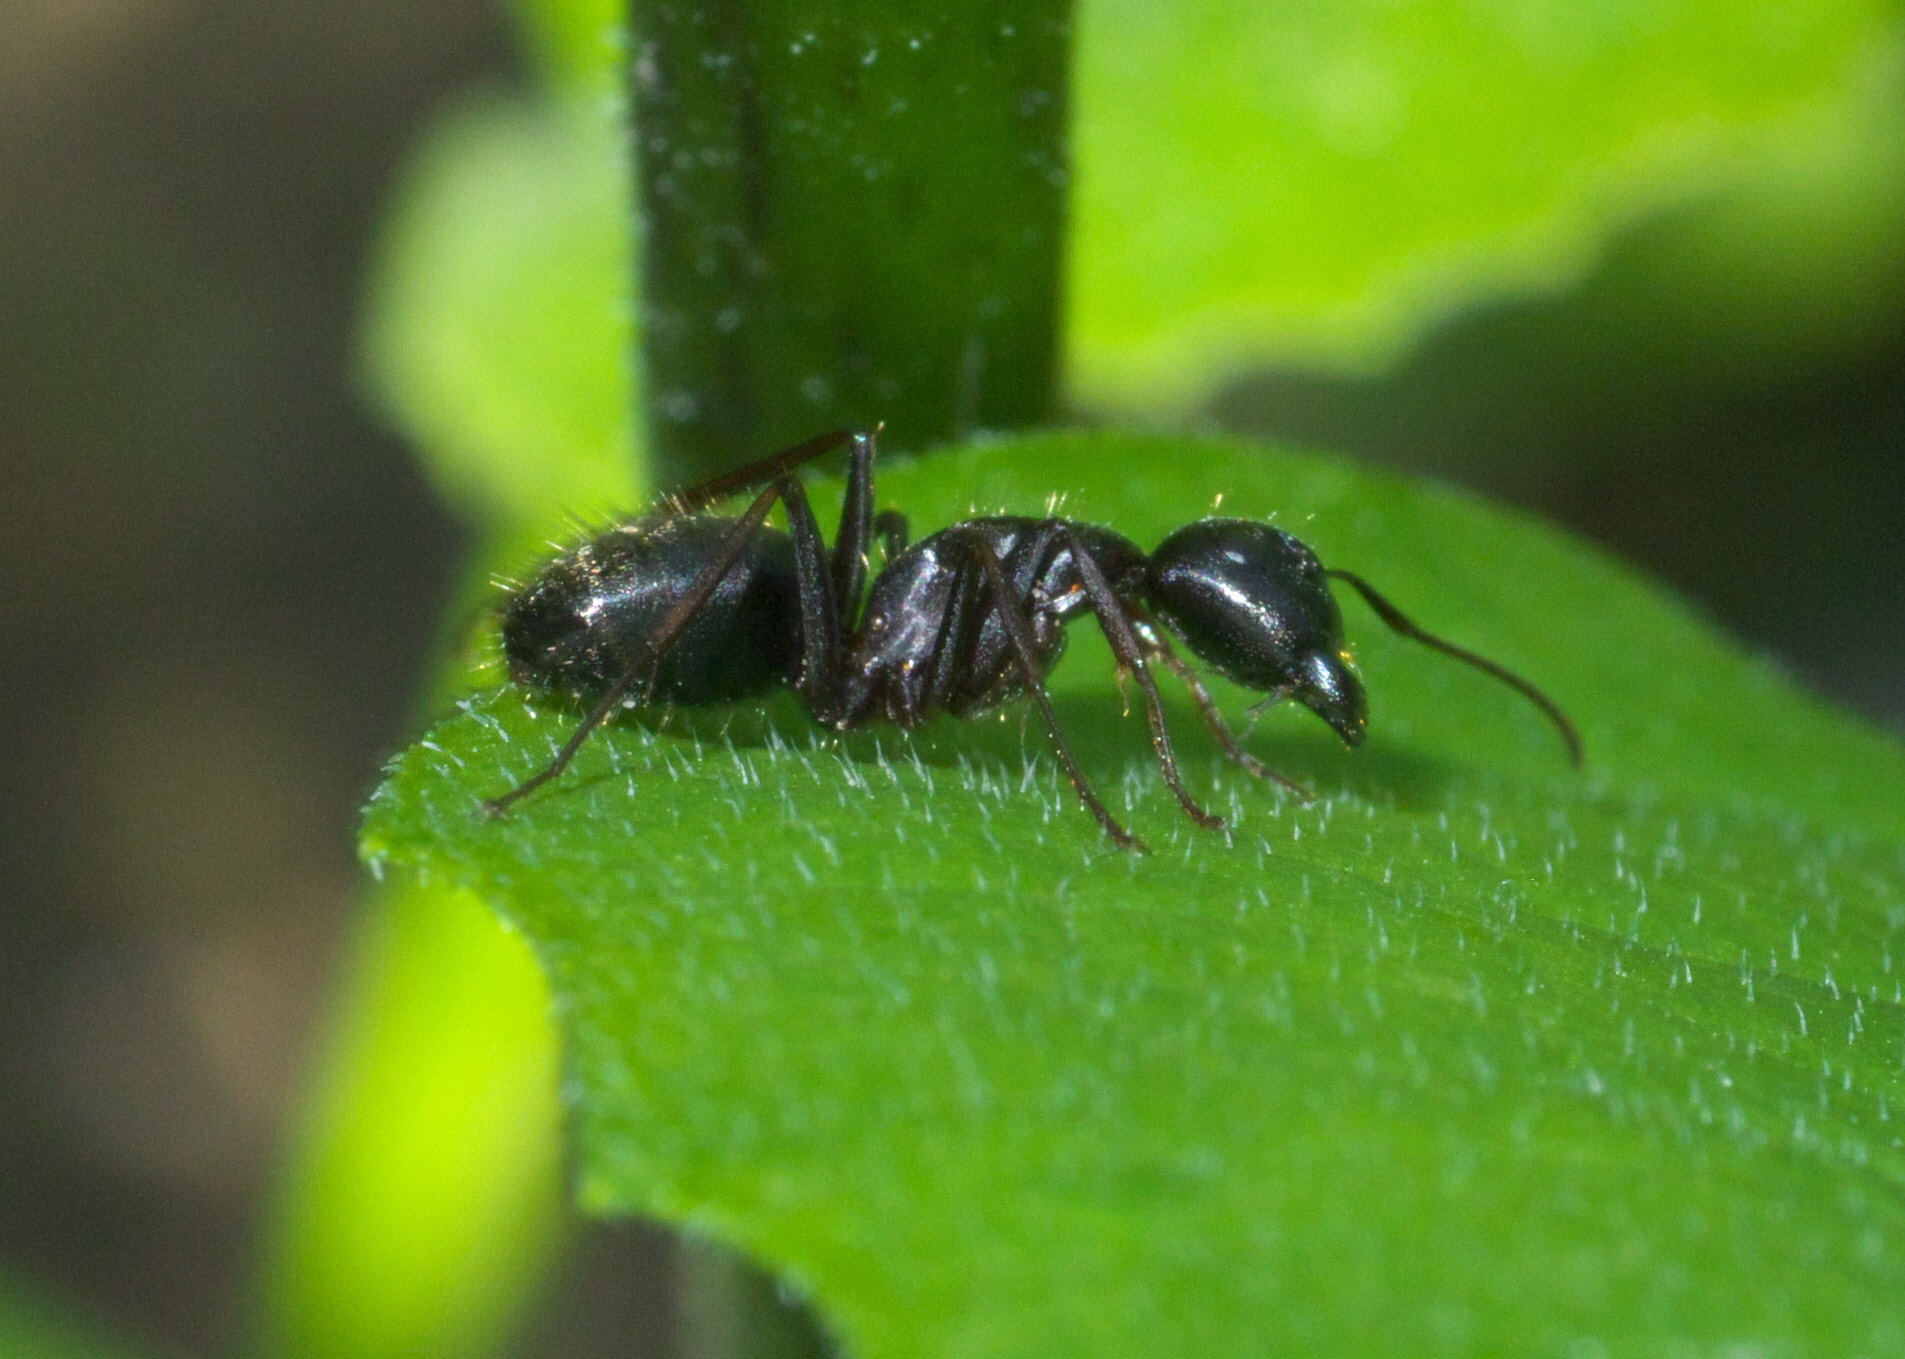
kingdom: Animalia
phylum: Arthropoda
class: Insecta
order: Hymenoptera
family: Formicidae
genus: Camponotus
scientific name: Camponotus pennsylvanicus
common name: Black carpenter ant
